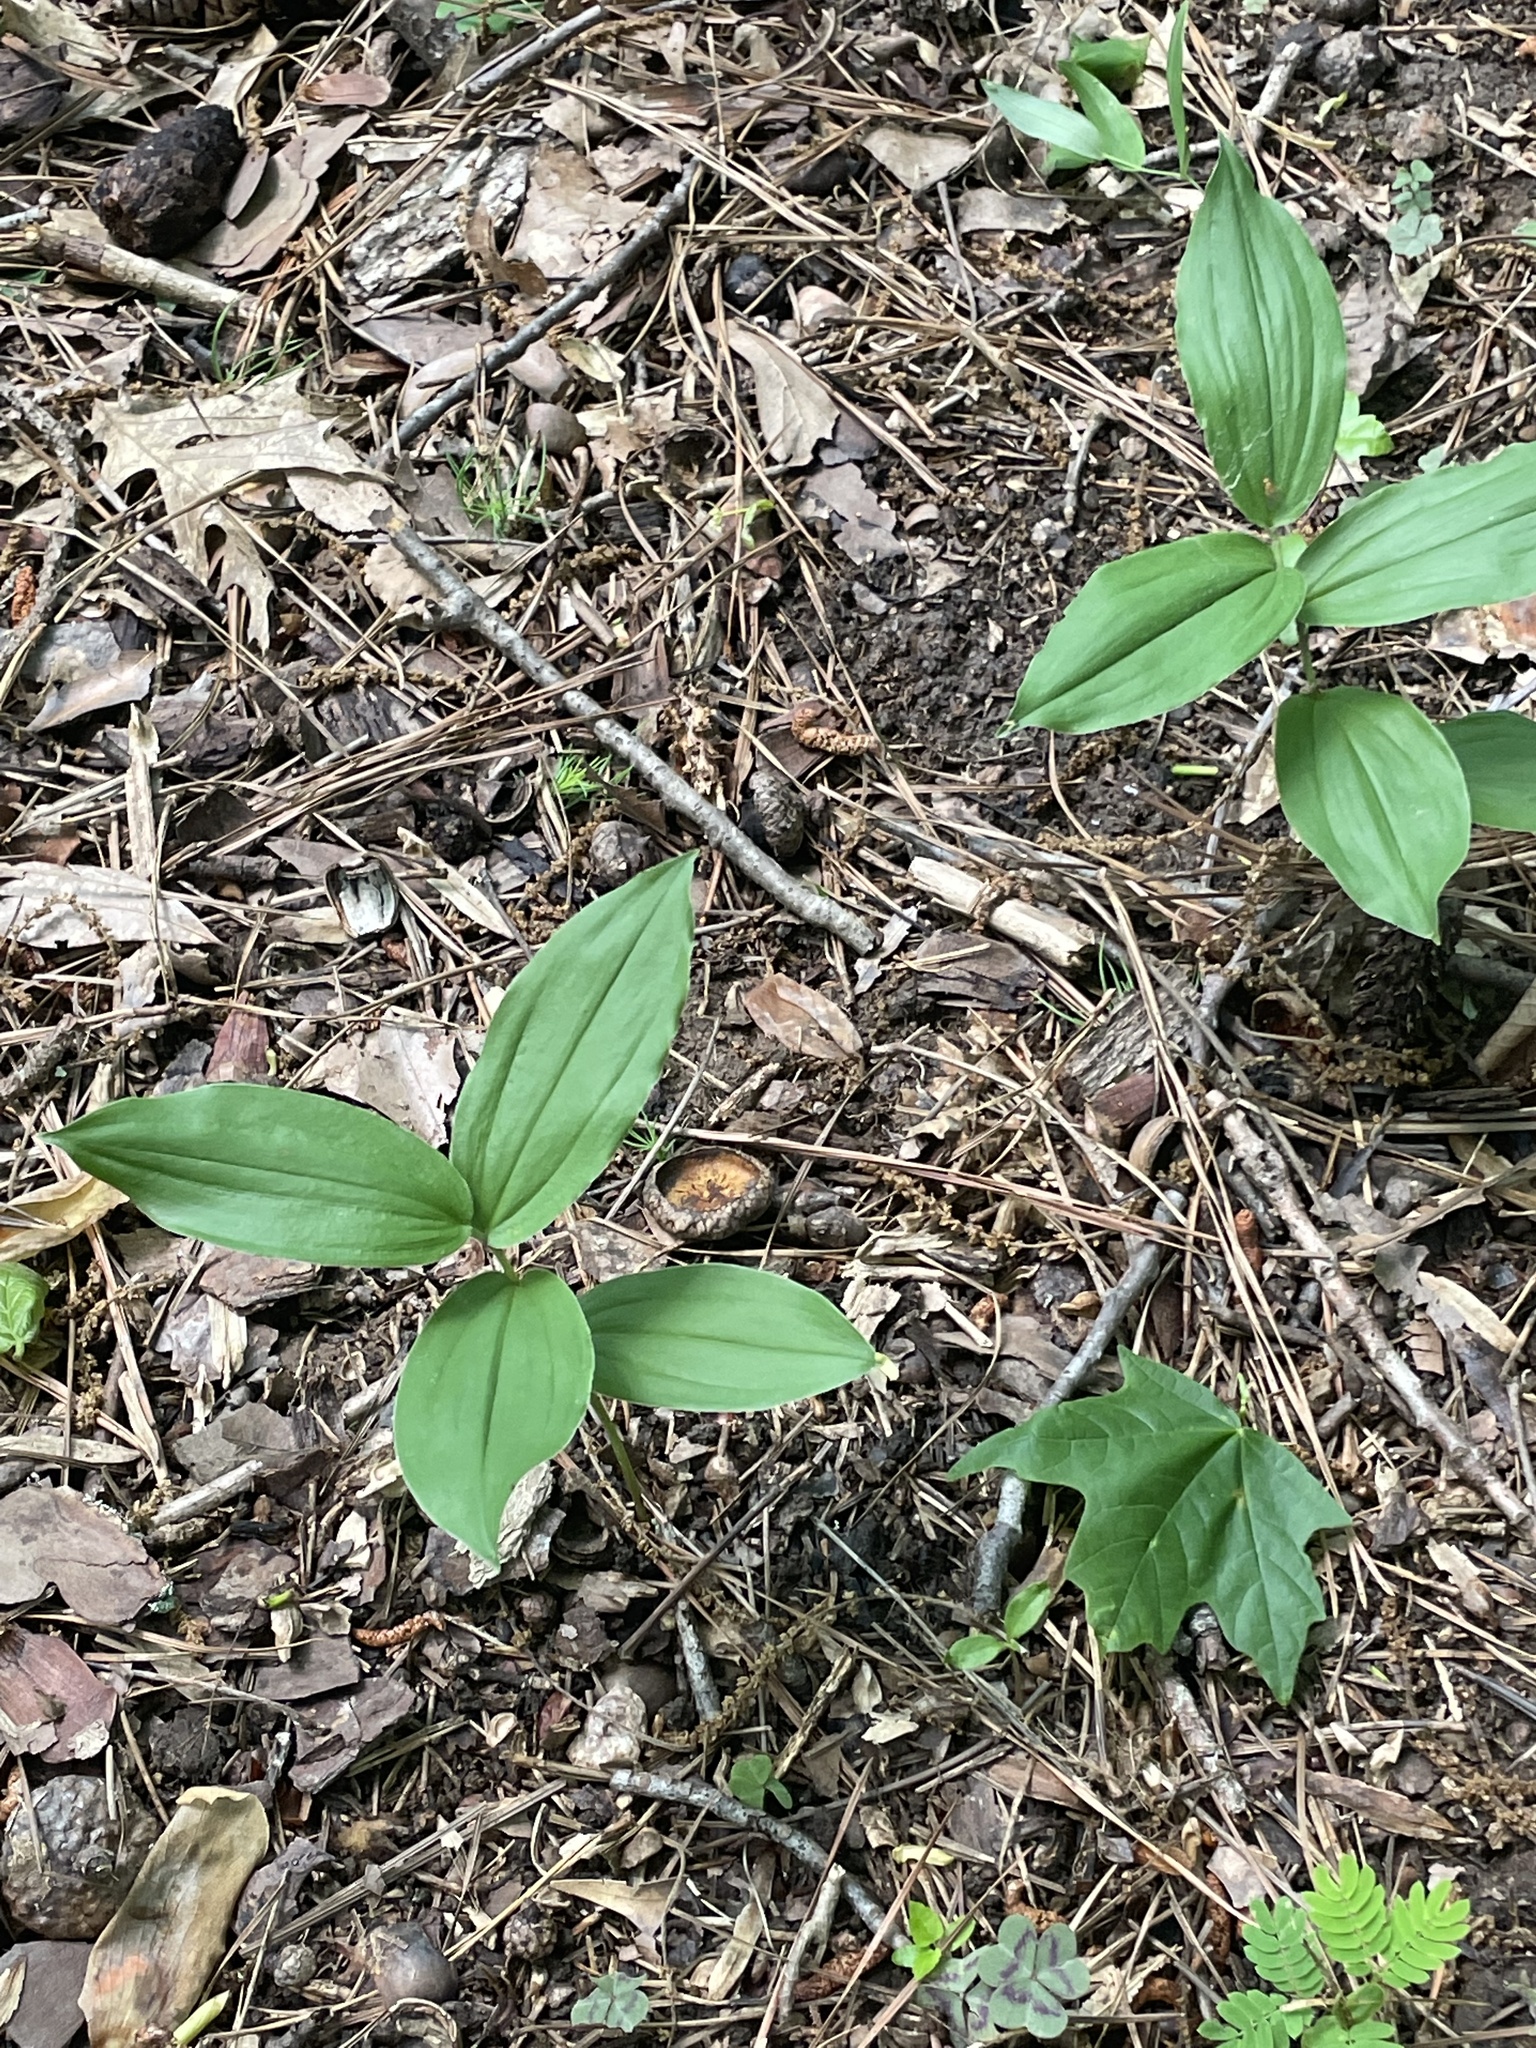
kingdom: Plantae
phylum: Tracheophyta
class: Liliopsida
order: Asparagales
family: Asparagaceae
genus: Maianthemum
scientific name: Maianthemum racemosum
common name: False spikenard
